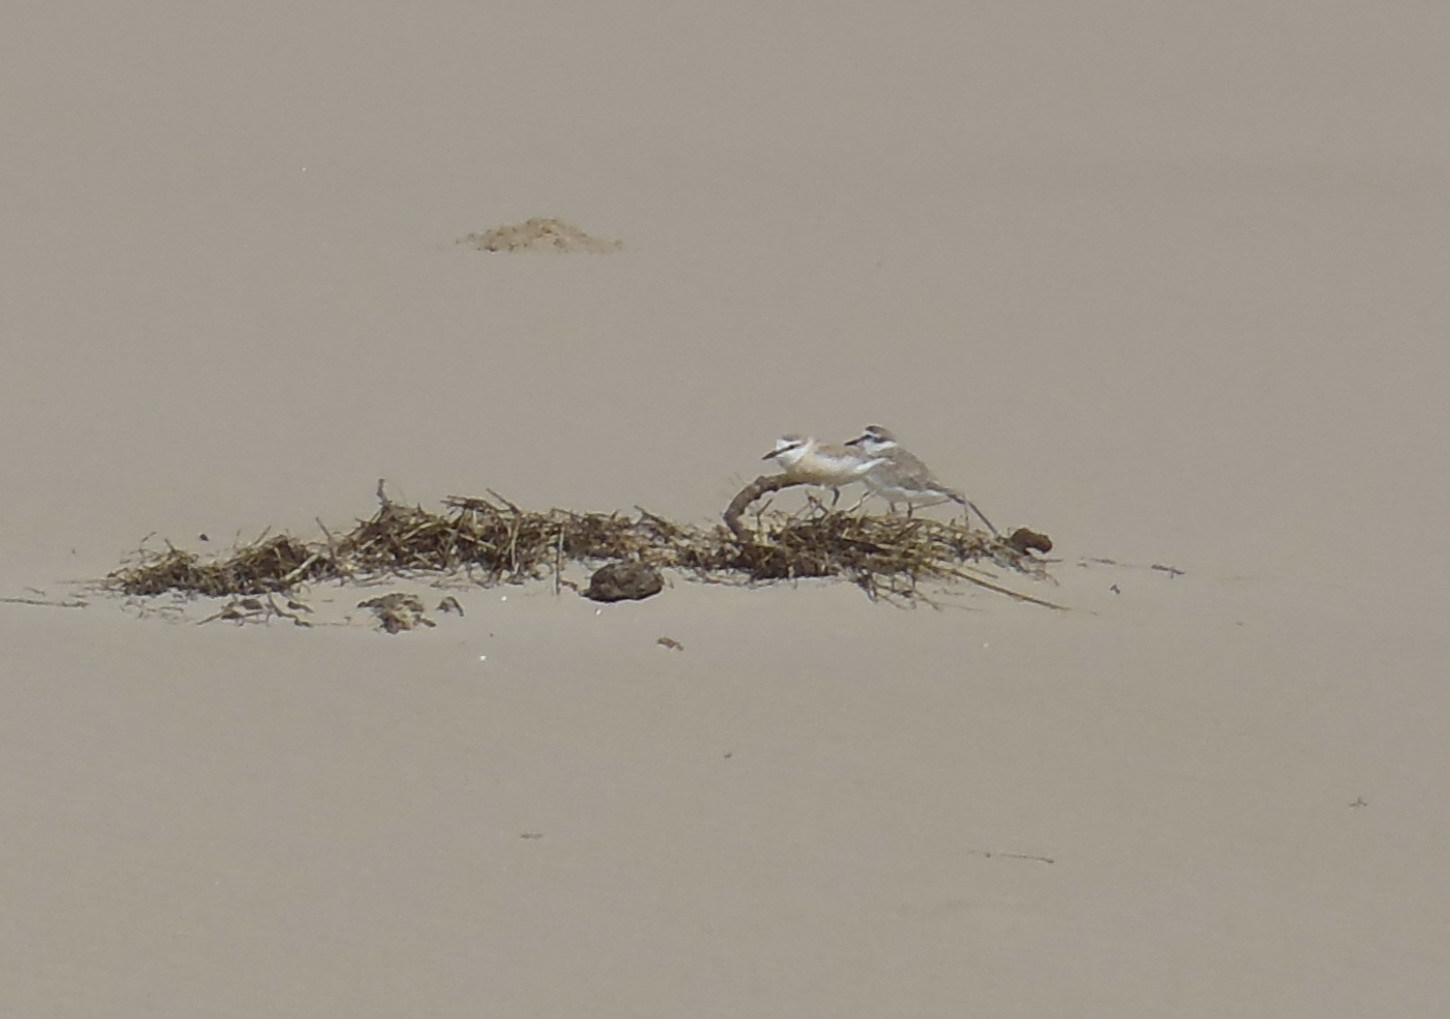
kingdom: Animalia
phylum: Chordata
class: Aves
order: Charadriiformes
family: Charadriidae
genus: Anarhynchus
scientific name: Anarhynchus
